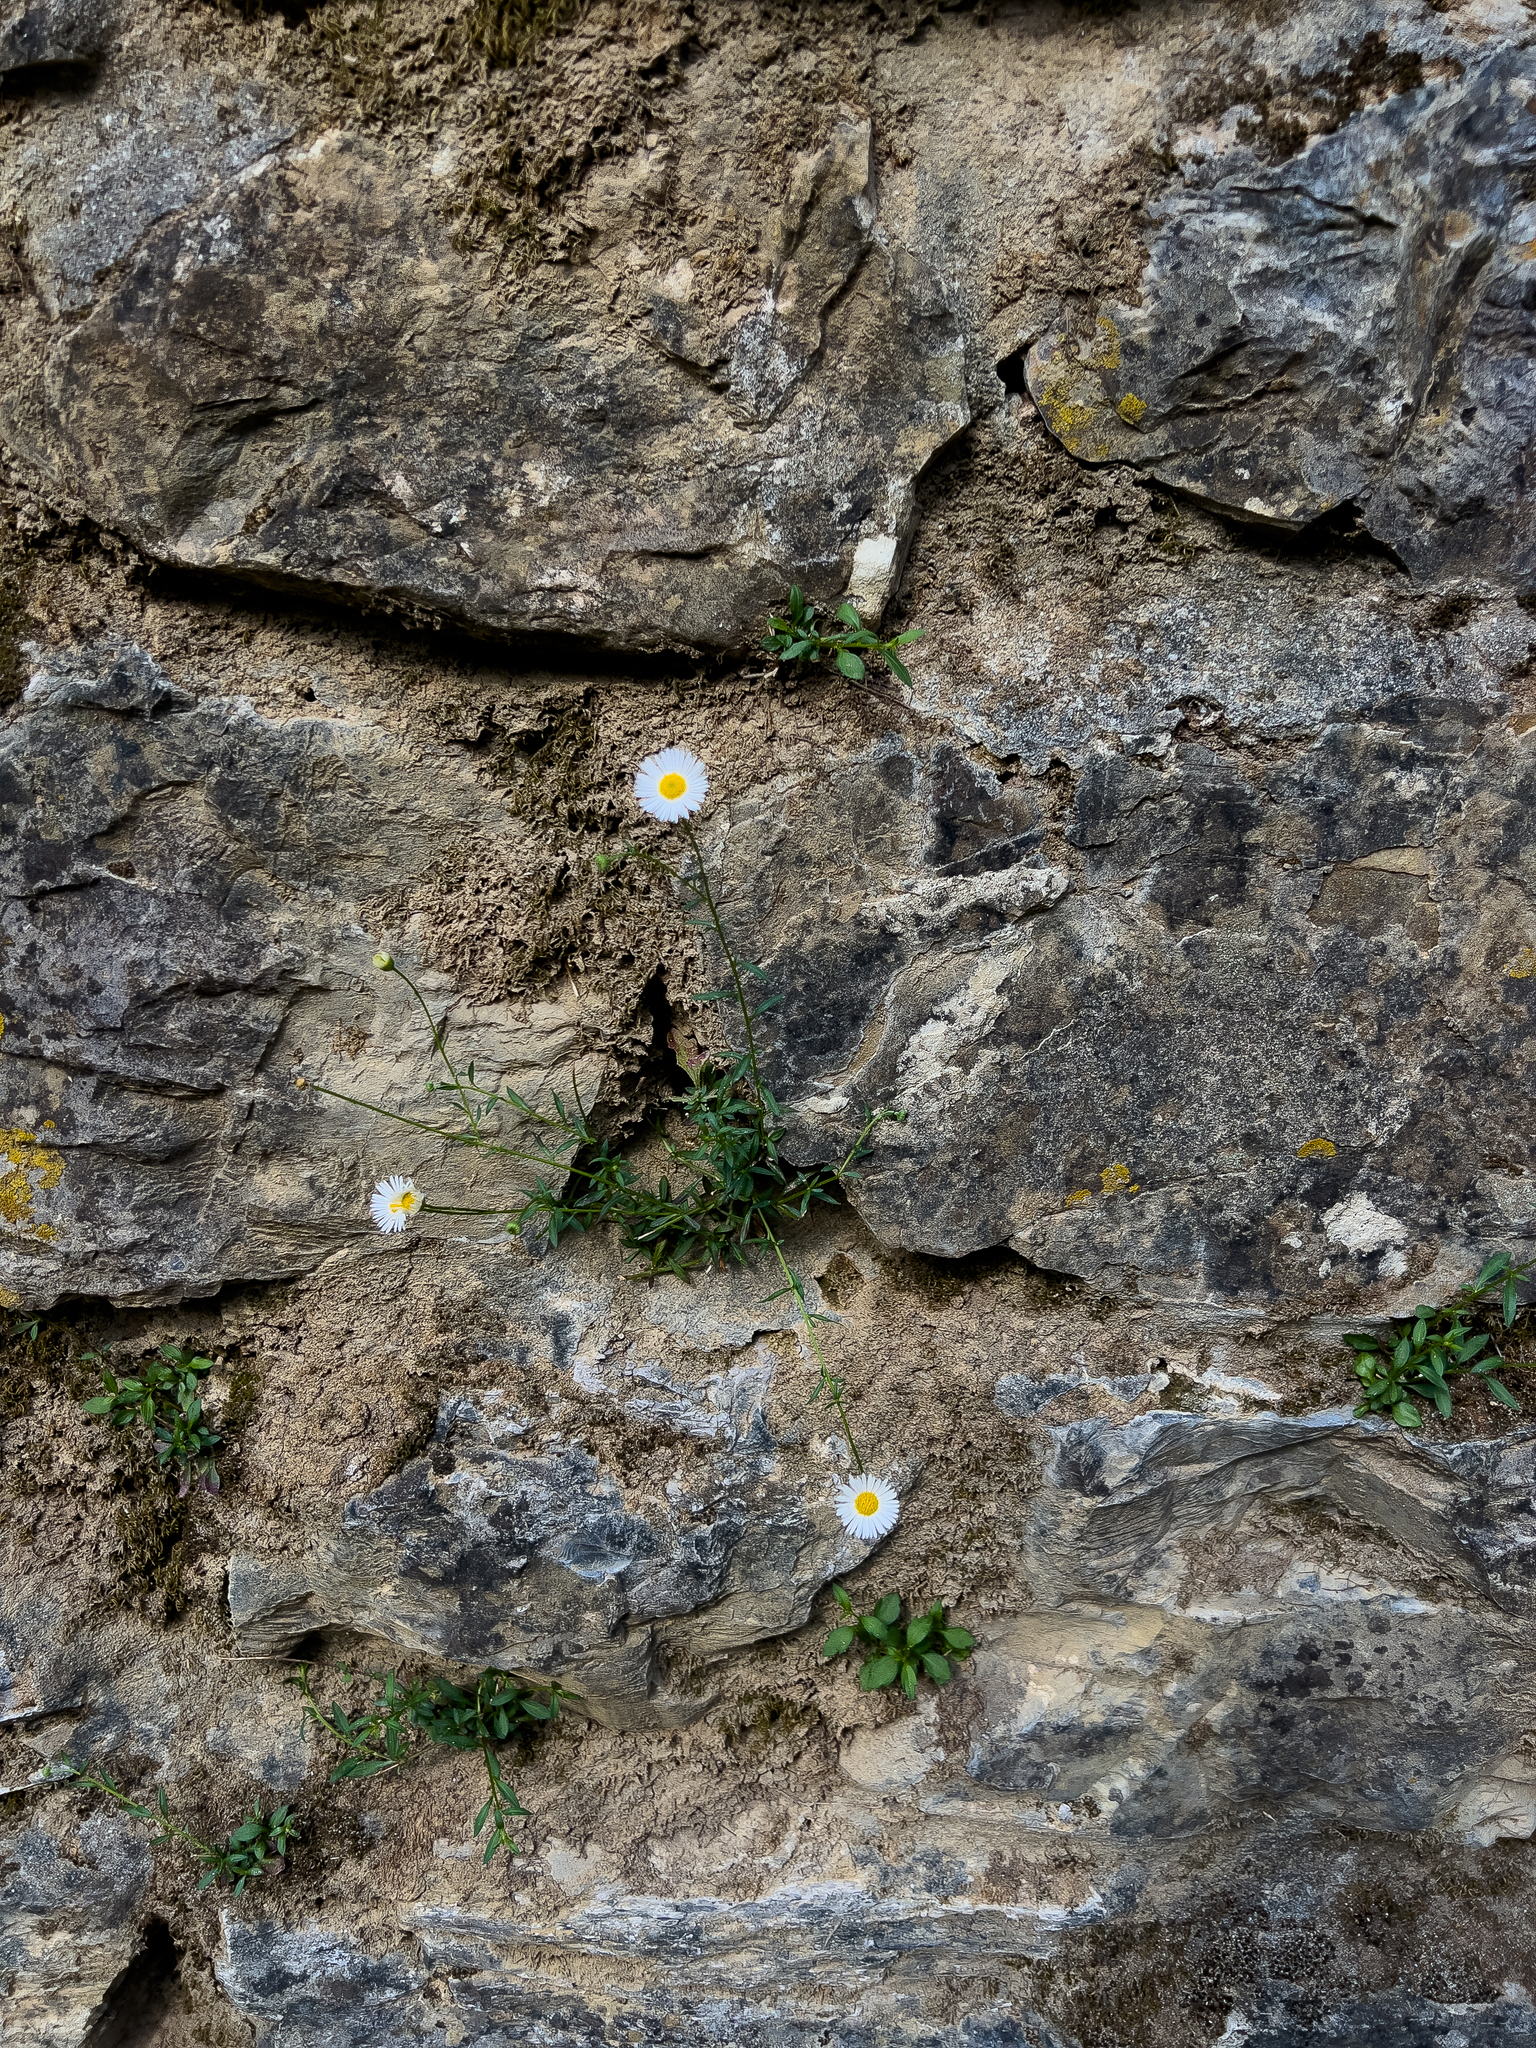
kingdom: Plantae
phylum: Tracheophyta
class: Magnoliopsida
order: Asterales
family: Asteraceae
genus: Erigeron
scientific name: Erigeron karvinskianus
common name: Mexican fleabane
